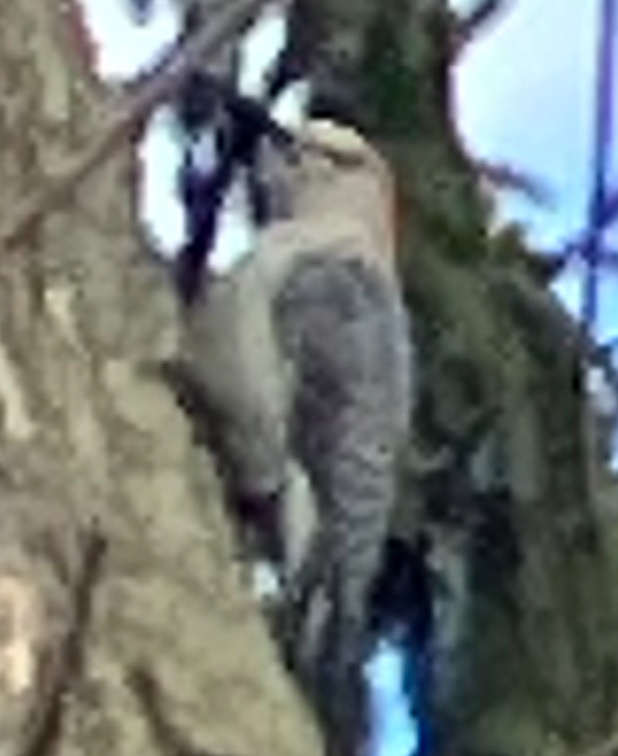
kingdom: Animalia
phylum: Chordata
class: Aves
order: Piciformes
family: Picidae
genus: Melanerpes
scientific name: Melanerpes carolinus
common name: Red-bellied woodpecker
